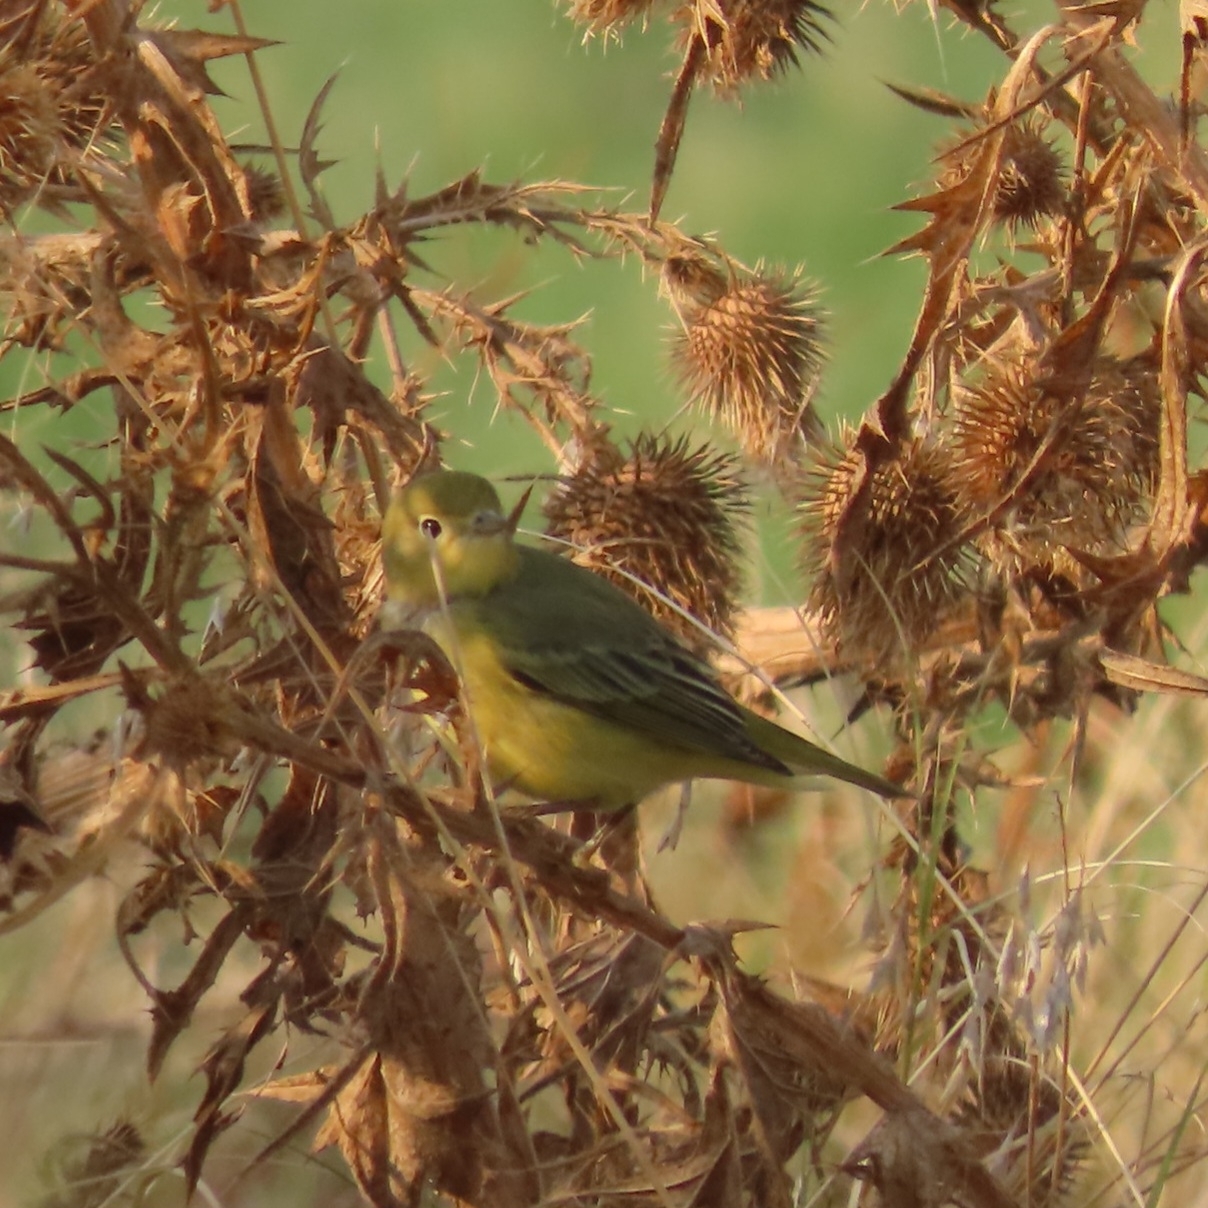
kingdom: Animalia
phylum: Chordata
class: Aves
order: Passeriformes
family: Parulidae
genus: Setophaga
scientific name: Setophaga petechia
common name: Yellow warbler
